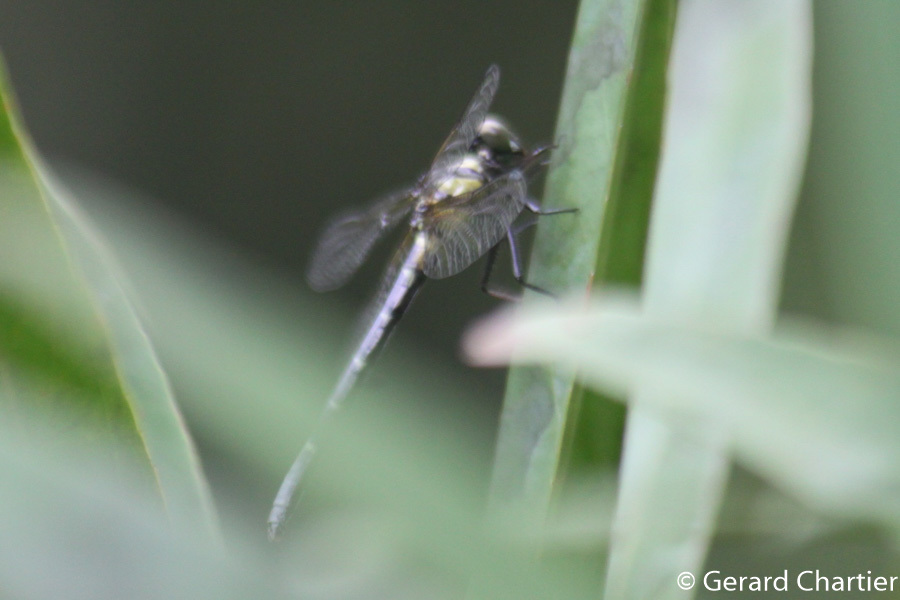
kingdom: Animalia
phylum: Arthropoda
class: Insecta
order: Odonata
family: Gomphidae
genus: Microgomphus
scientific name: Microgomphus chelifer
